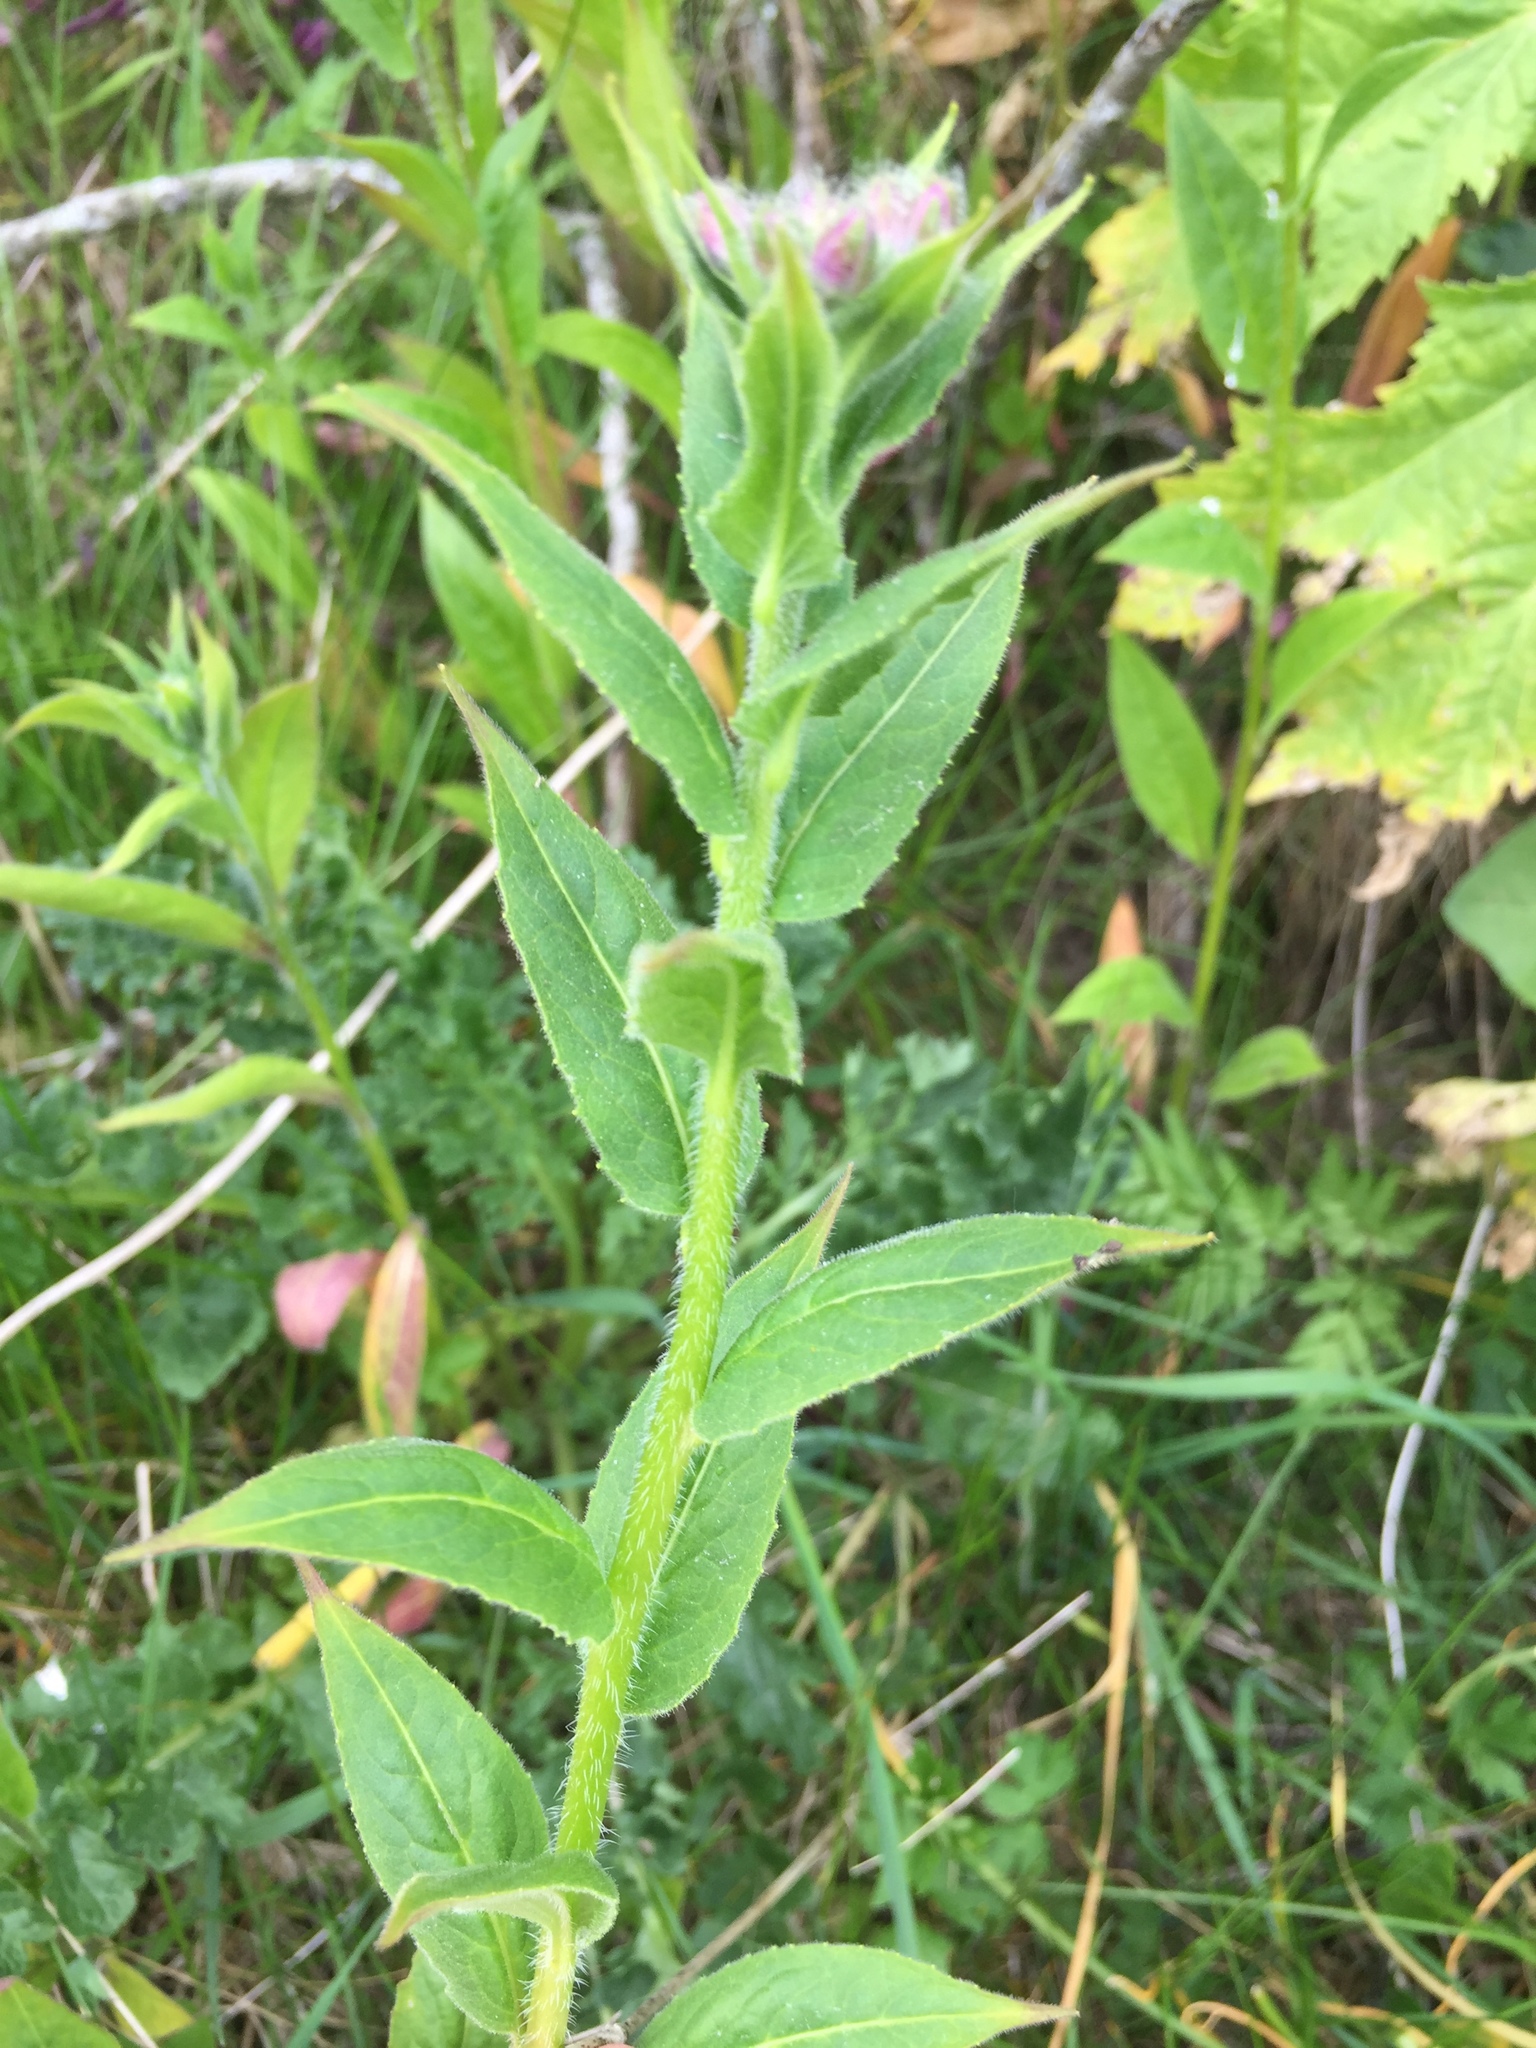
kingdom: Plantae
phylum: Tracheophyta
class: Magnoliopsida
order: Brassicales
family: Brassicaceae
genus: Hesperis
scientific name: Hesperis matronalis
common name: Dame's-violet
